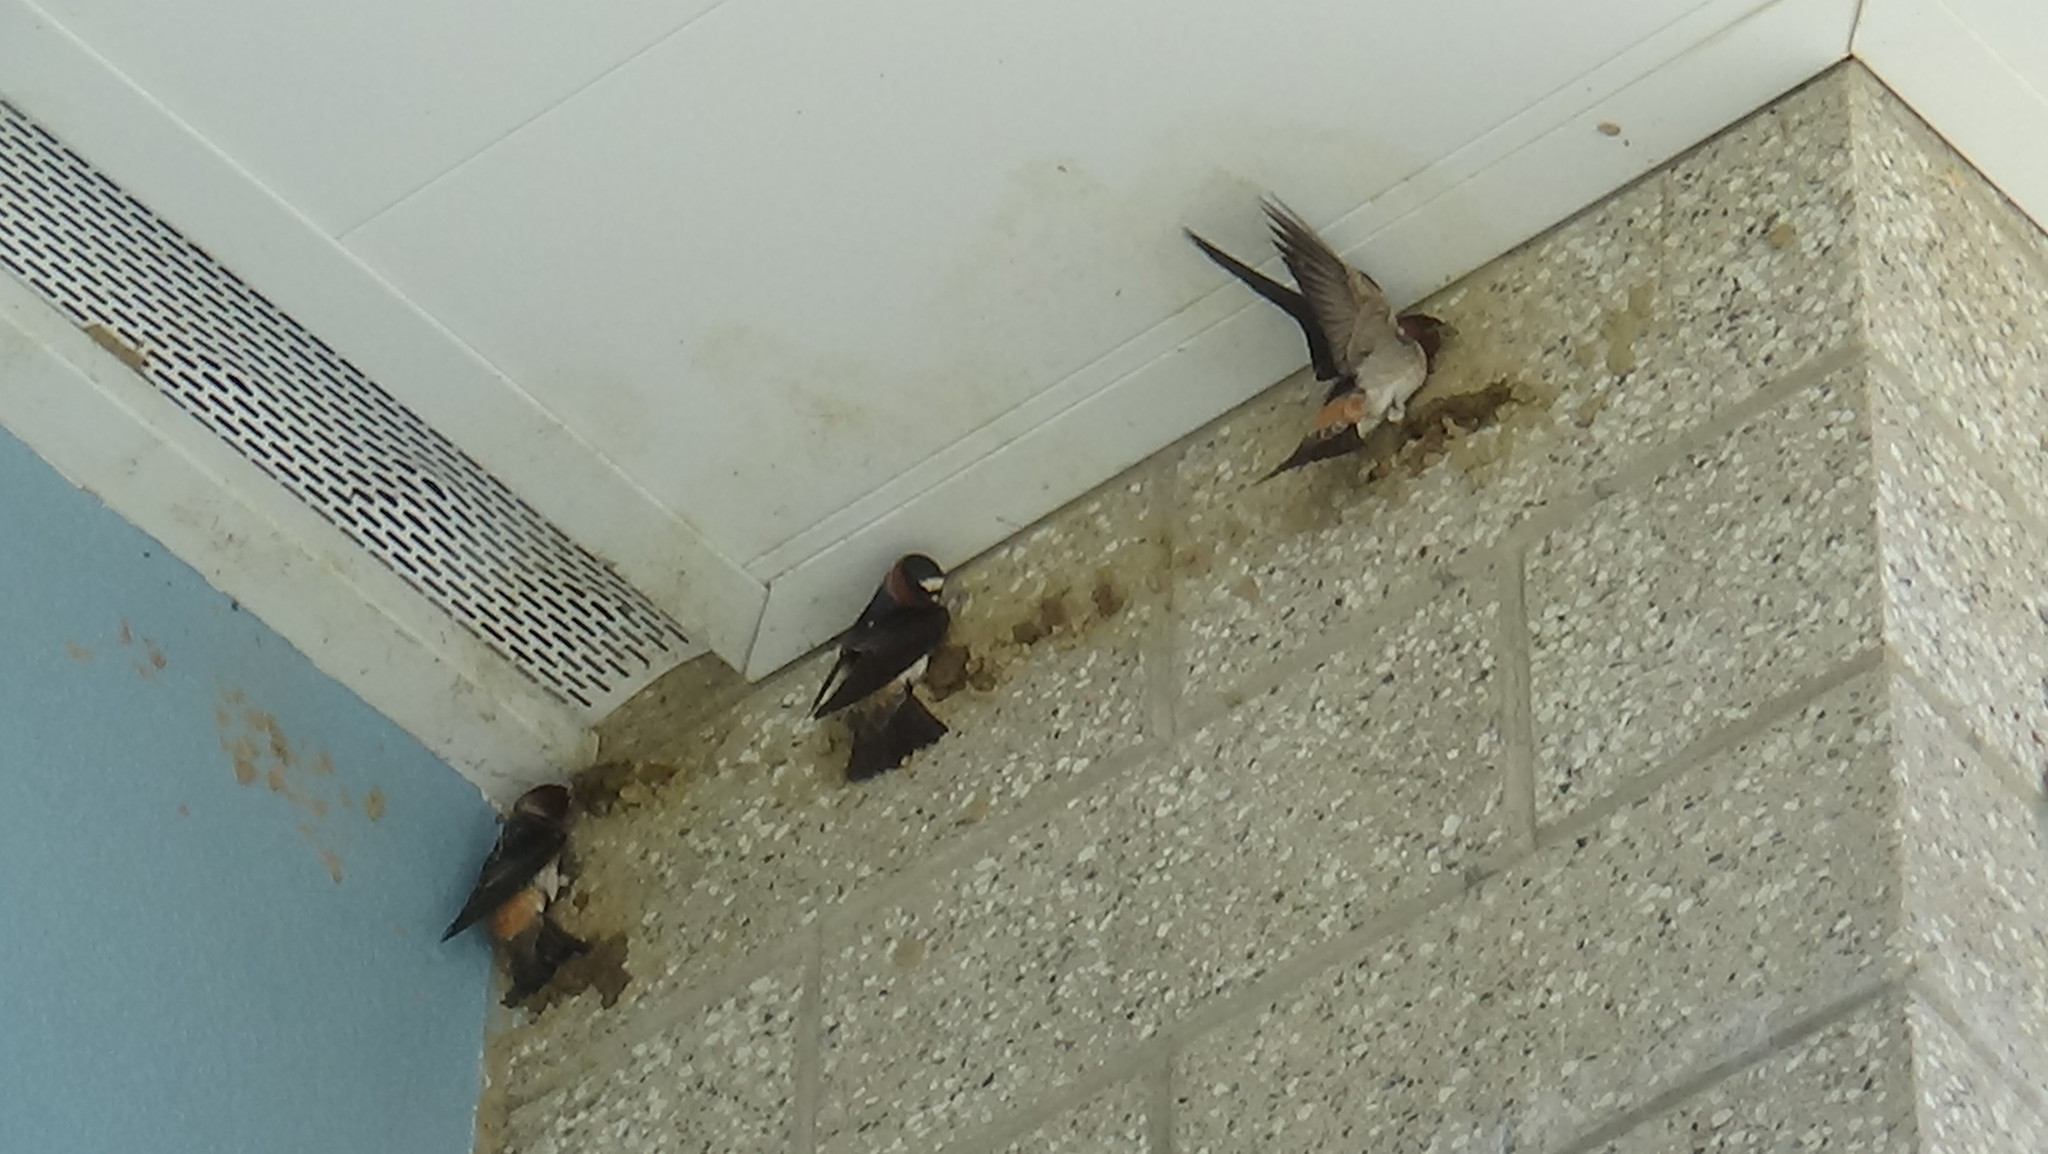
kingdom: Animalia
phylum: Chordata
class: Aves
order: Passeriformes
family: Hirundinidae
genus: Petrochelidon
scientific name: Petrochelidon pyrrhonota
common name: American cliff swallow
